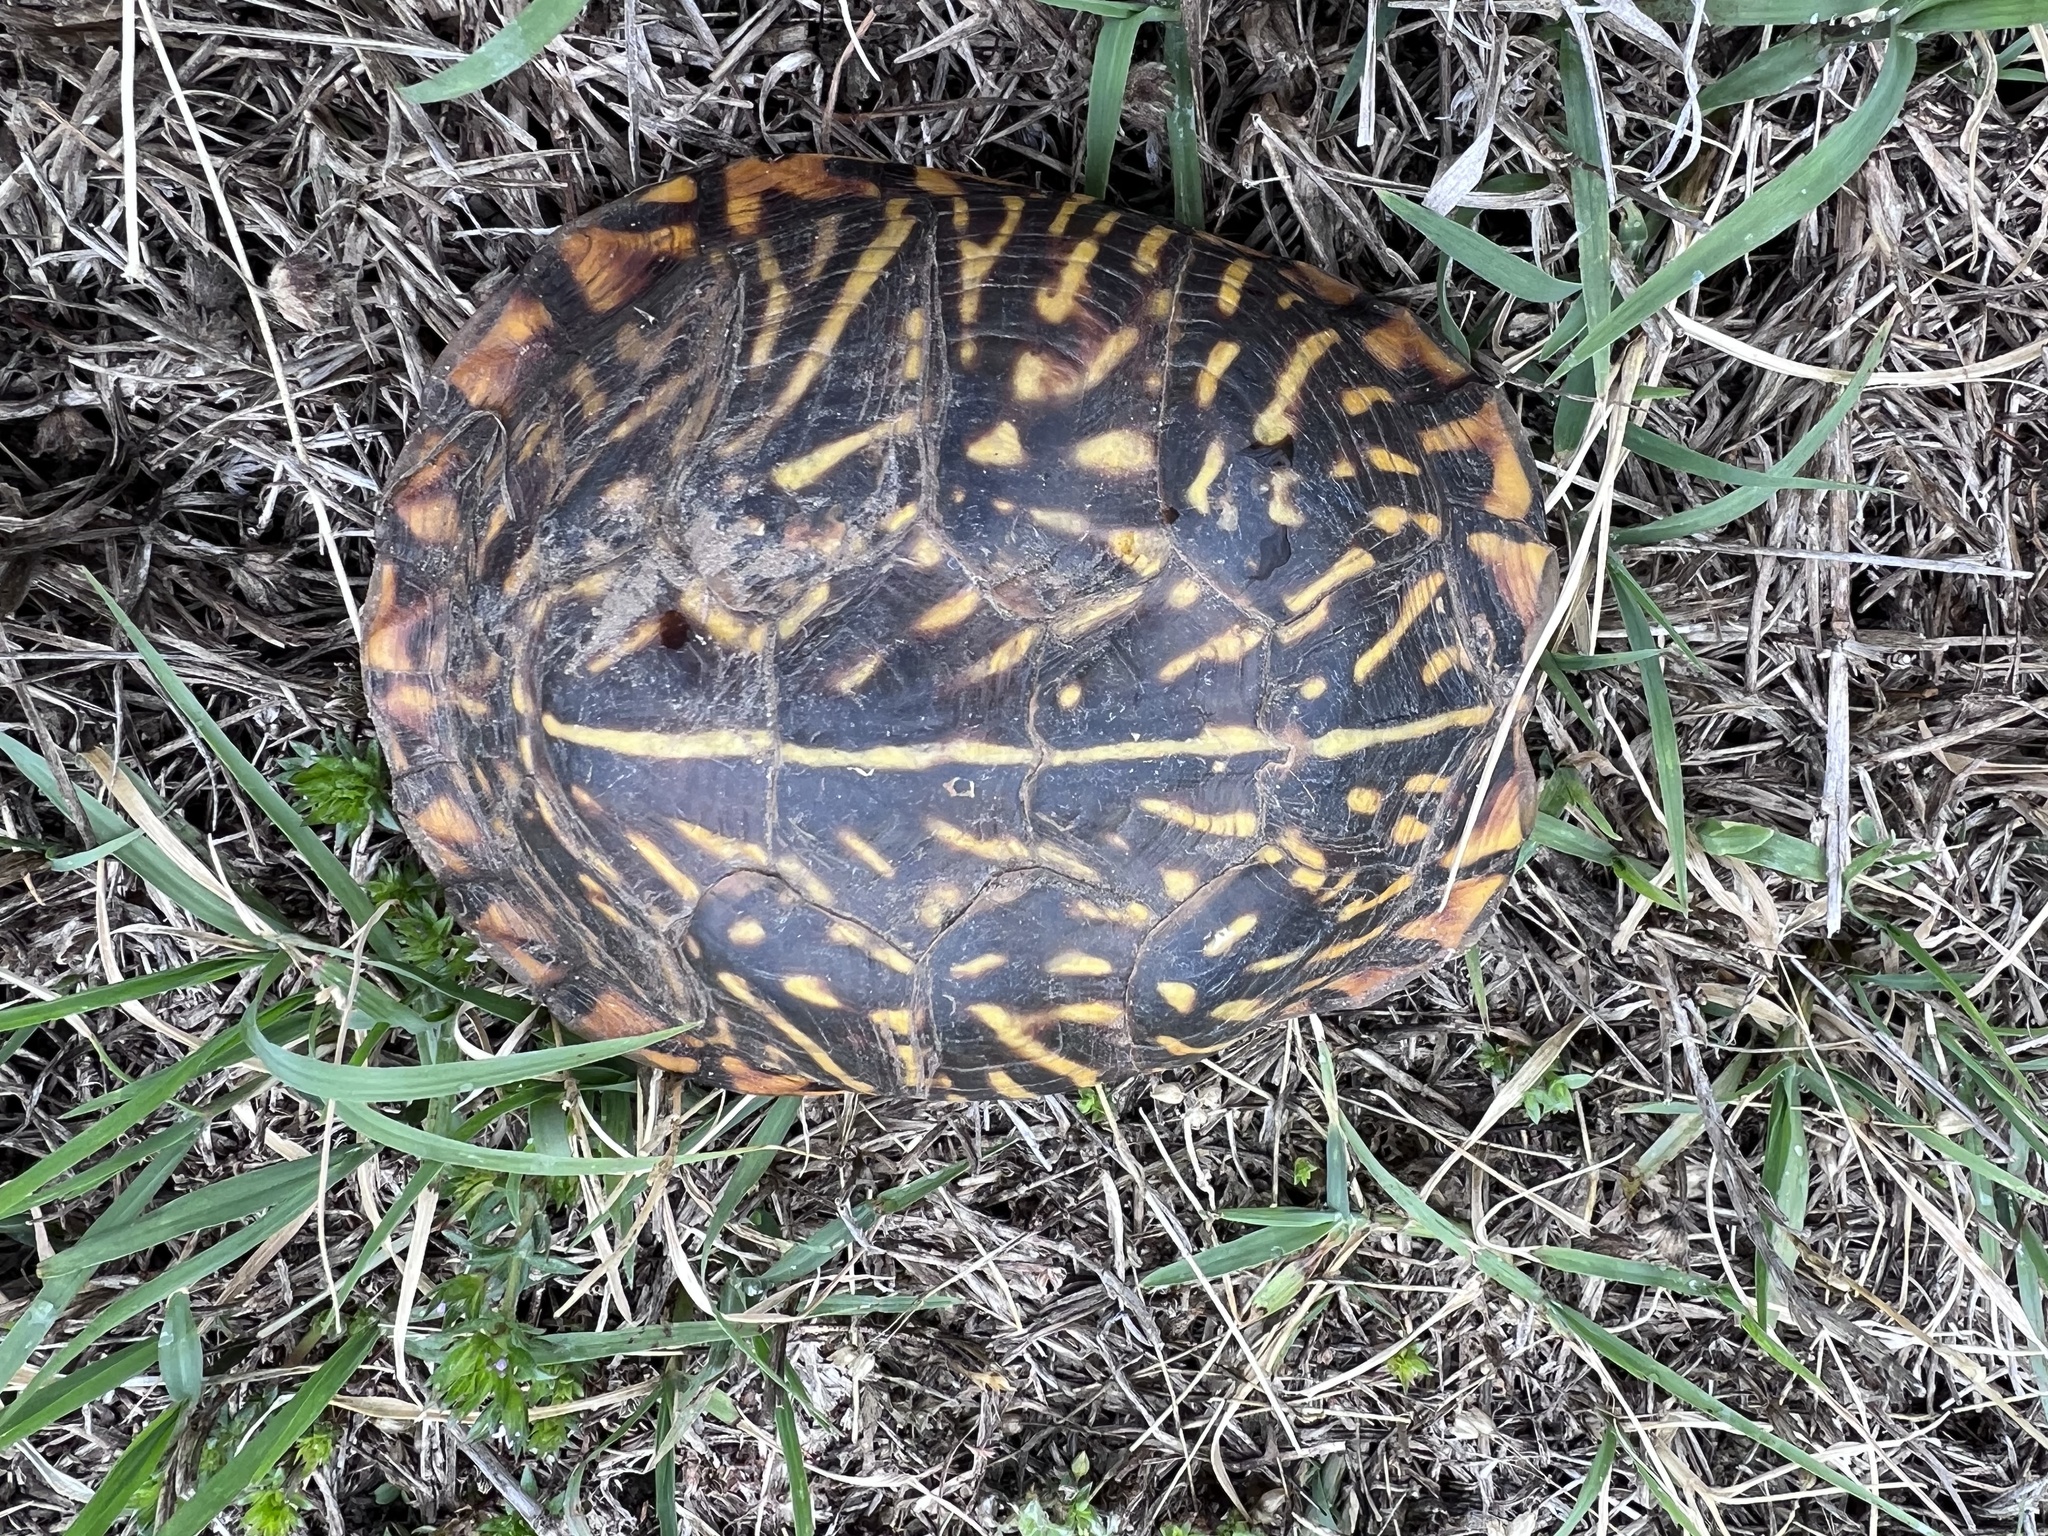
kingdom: Animalia
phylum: Chordata
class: Testudines
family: Emydidae
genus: Terrapene
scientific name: Terrapene ornata
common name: Western box turtle
